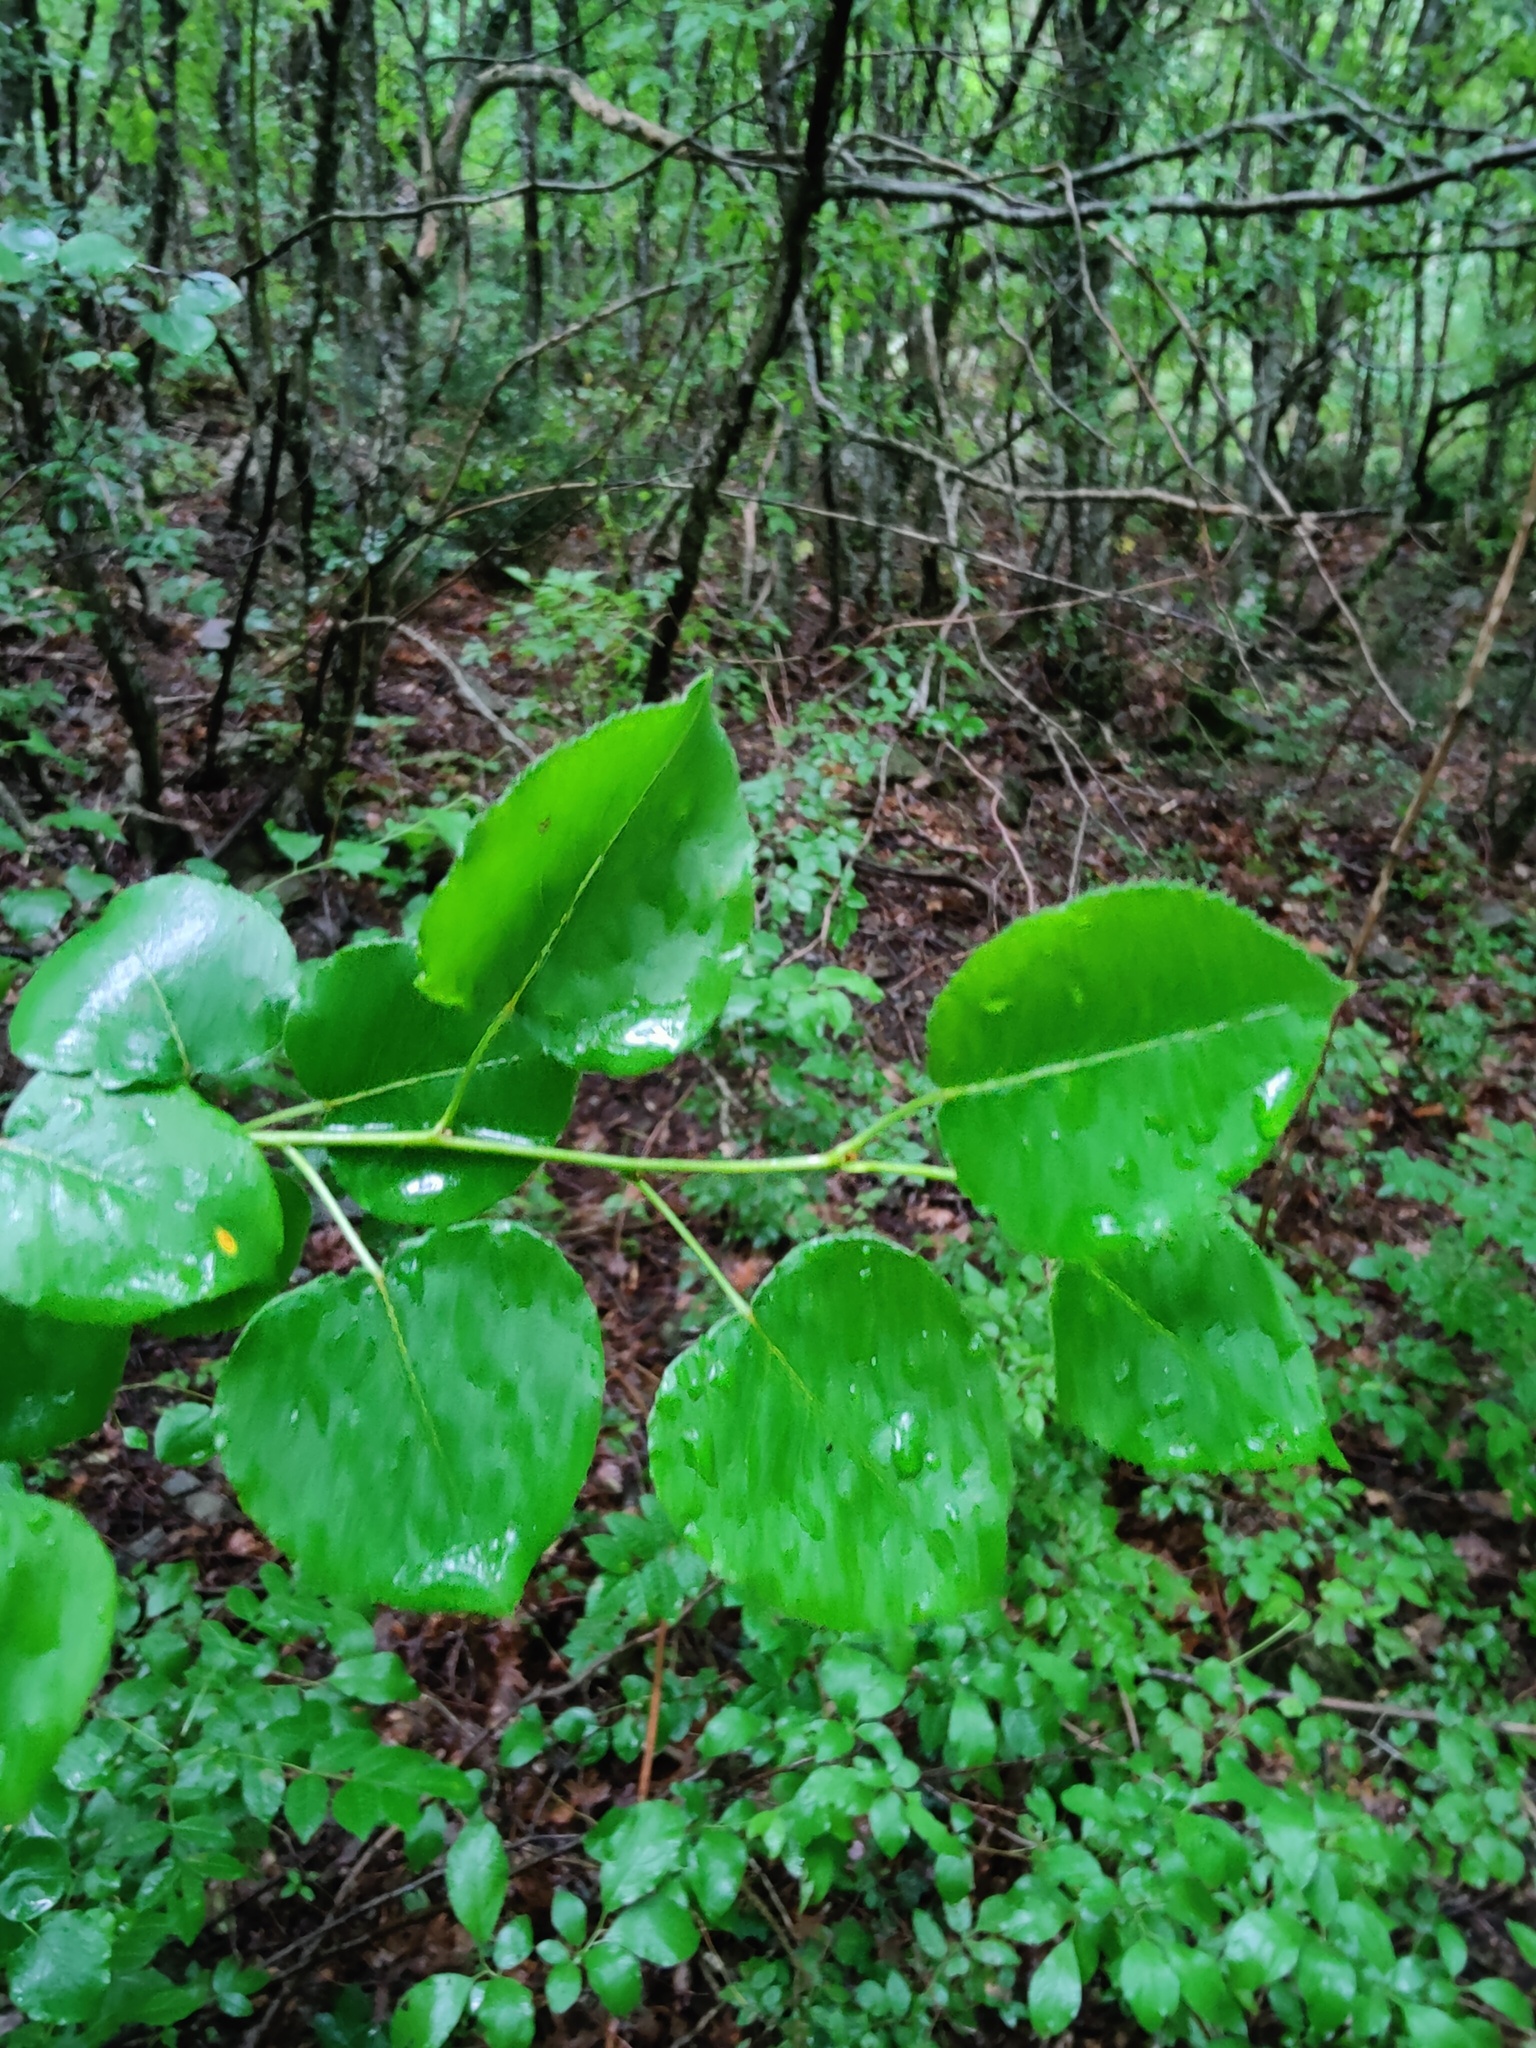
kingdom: Plantae
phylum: Tracheophyta
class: Magnoliopsida
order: Rosales
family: Rosaceae
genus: Pyrus
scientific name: Pyrus communis
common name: Pear
